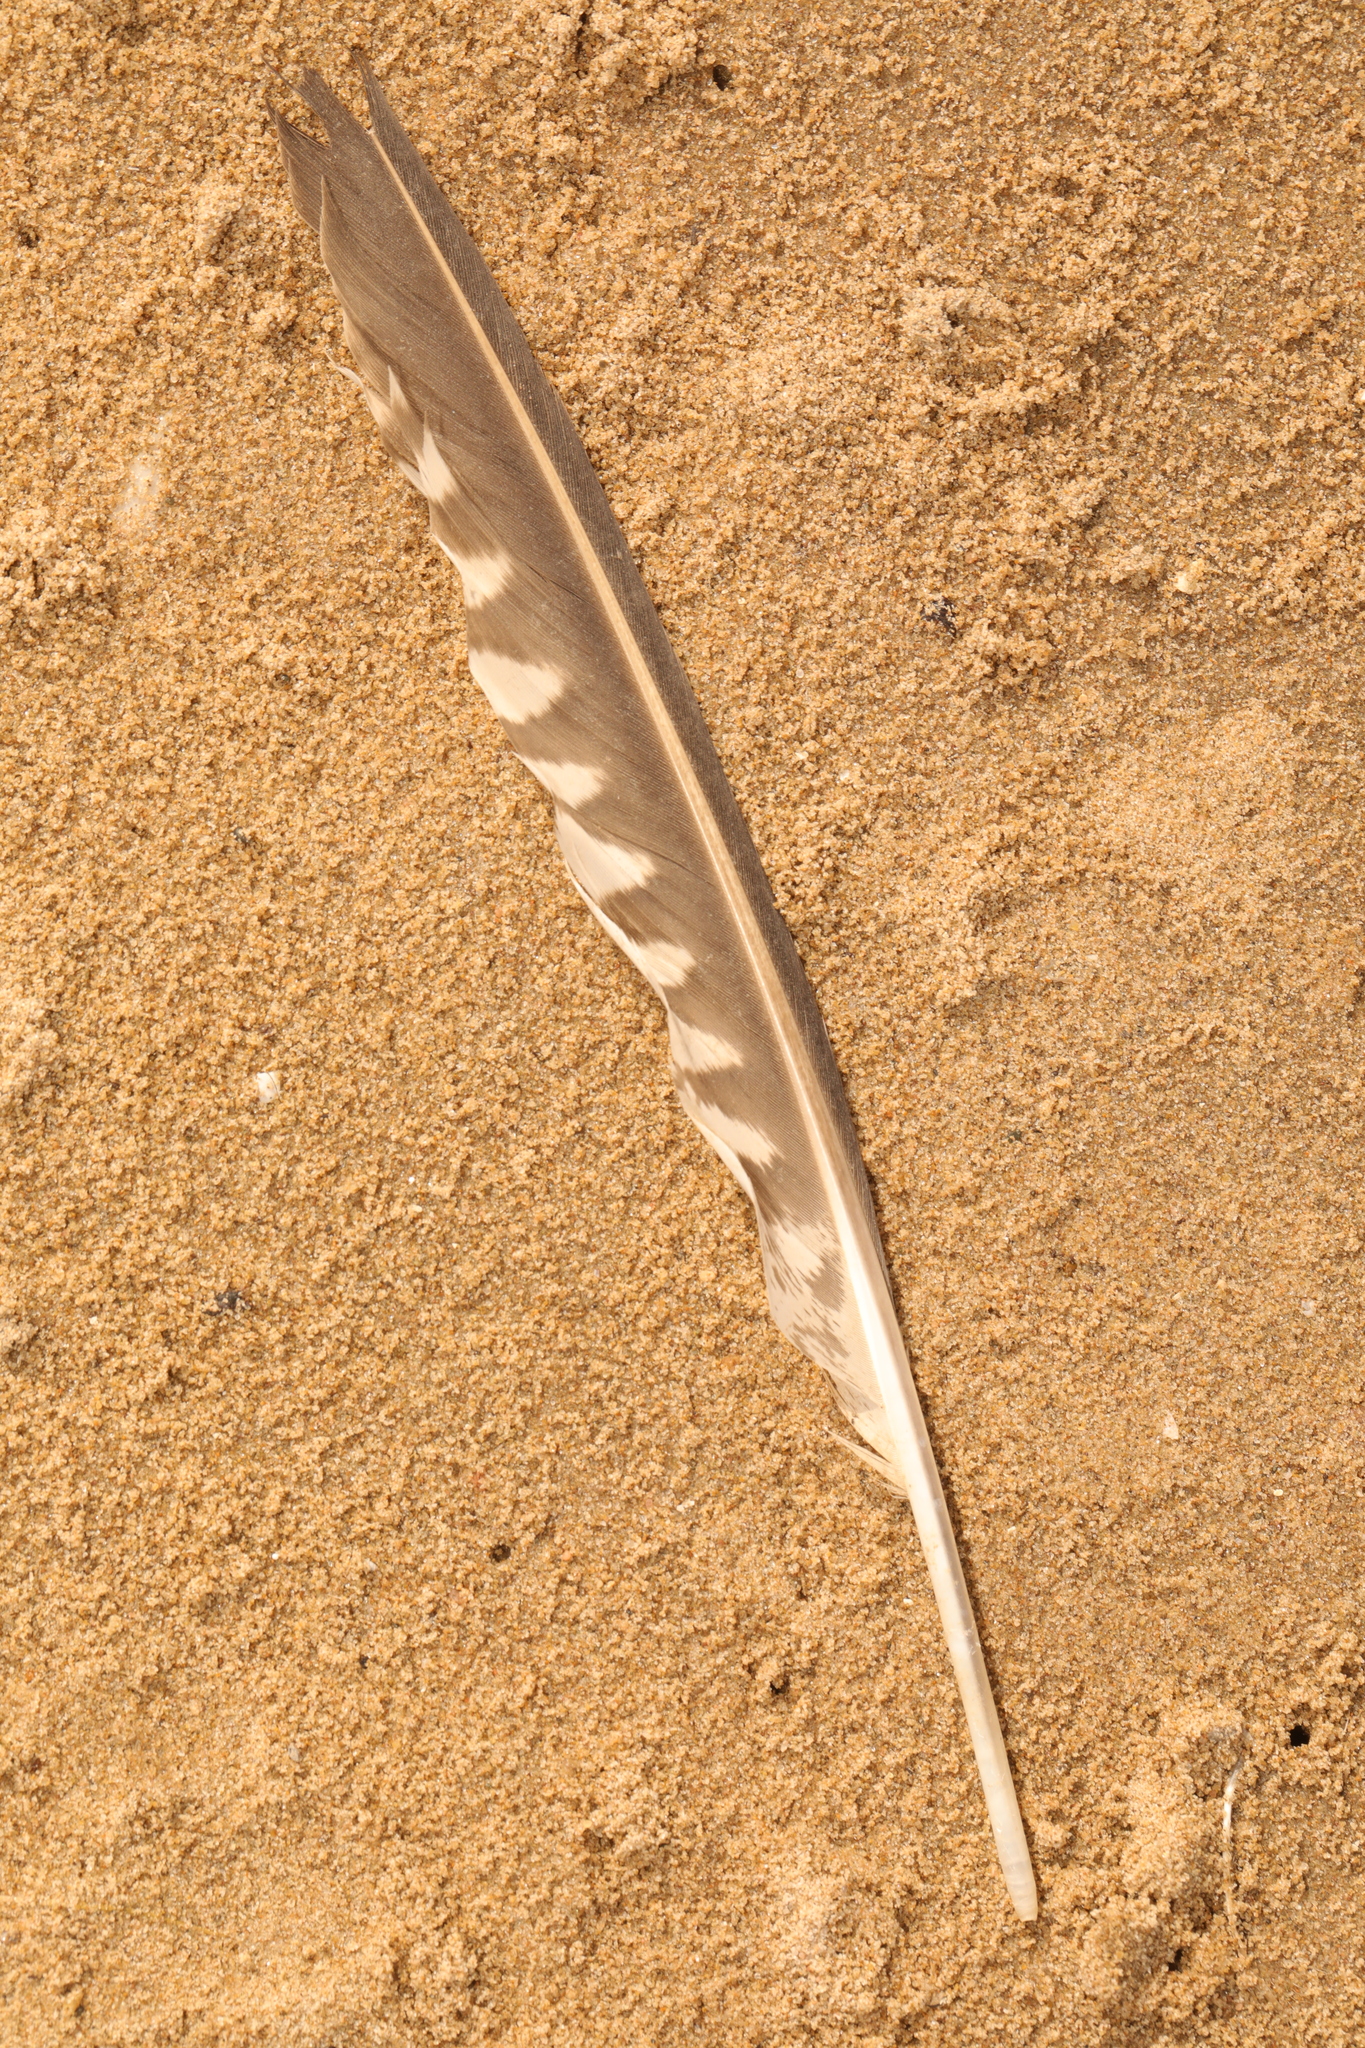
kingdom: Animalia
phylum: Chordata
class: Aves
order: Charadriiformes
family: Scolopacidae
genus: Numenius
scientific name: Numenius arquata
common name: Eurasian curlew
